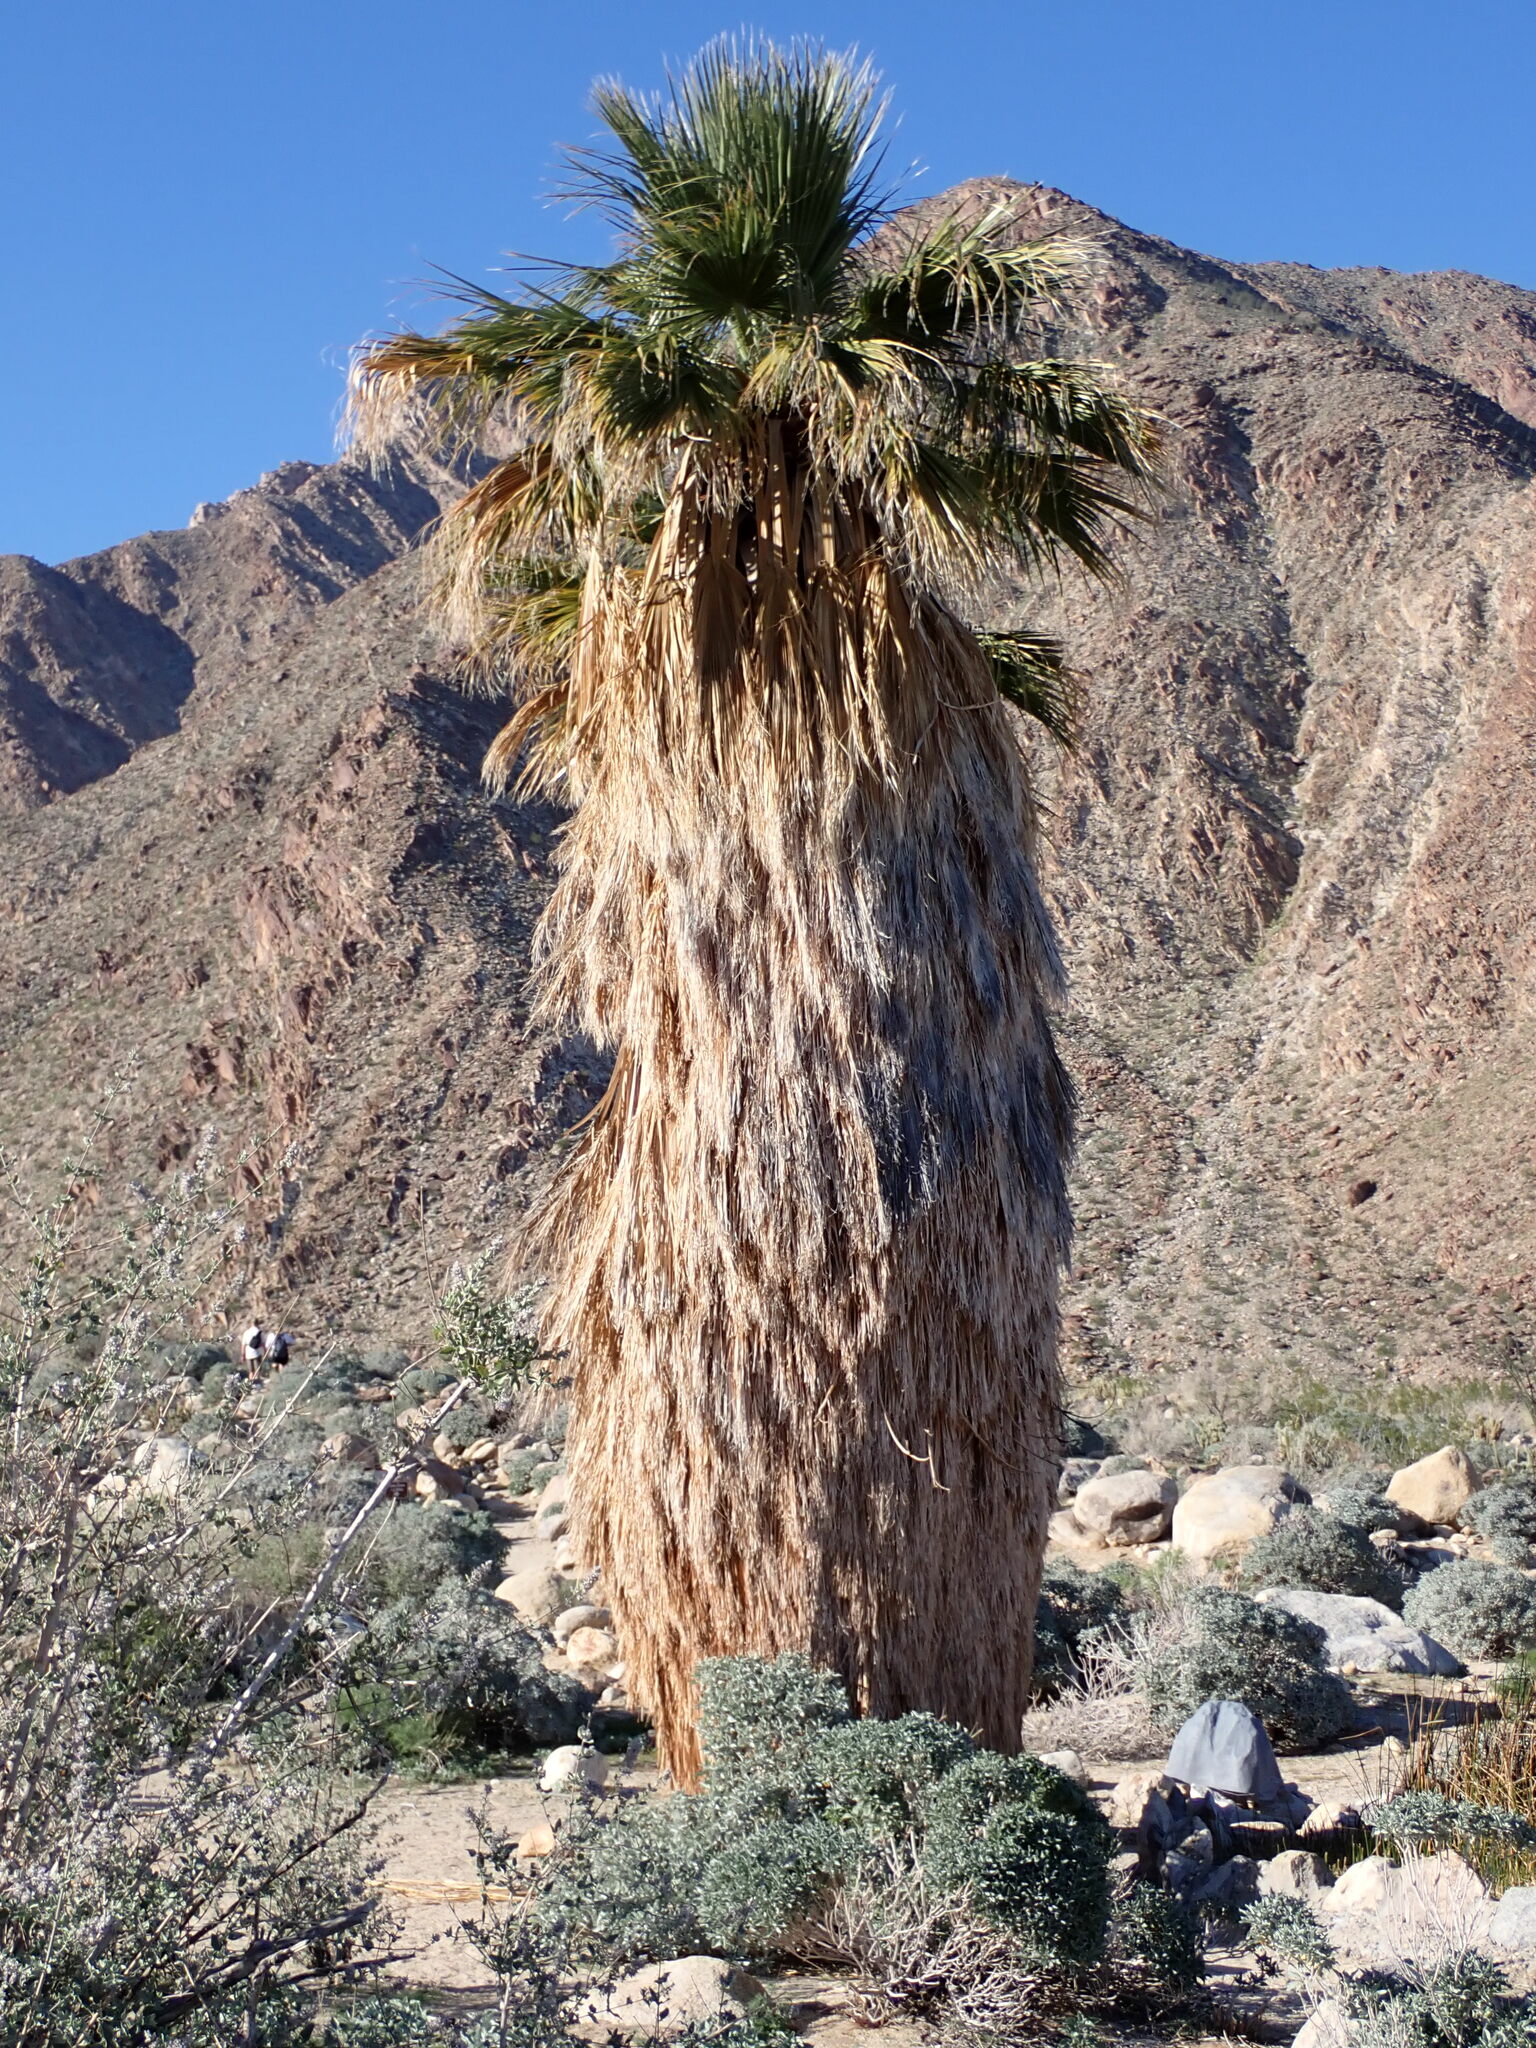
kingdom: Plantae
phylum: Tracheophyta
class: Liliopsida
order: Arecales
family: Arecaceae
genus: Washingtonia
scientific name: Washingtonia filifera
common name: California fan palm
